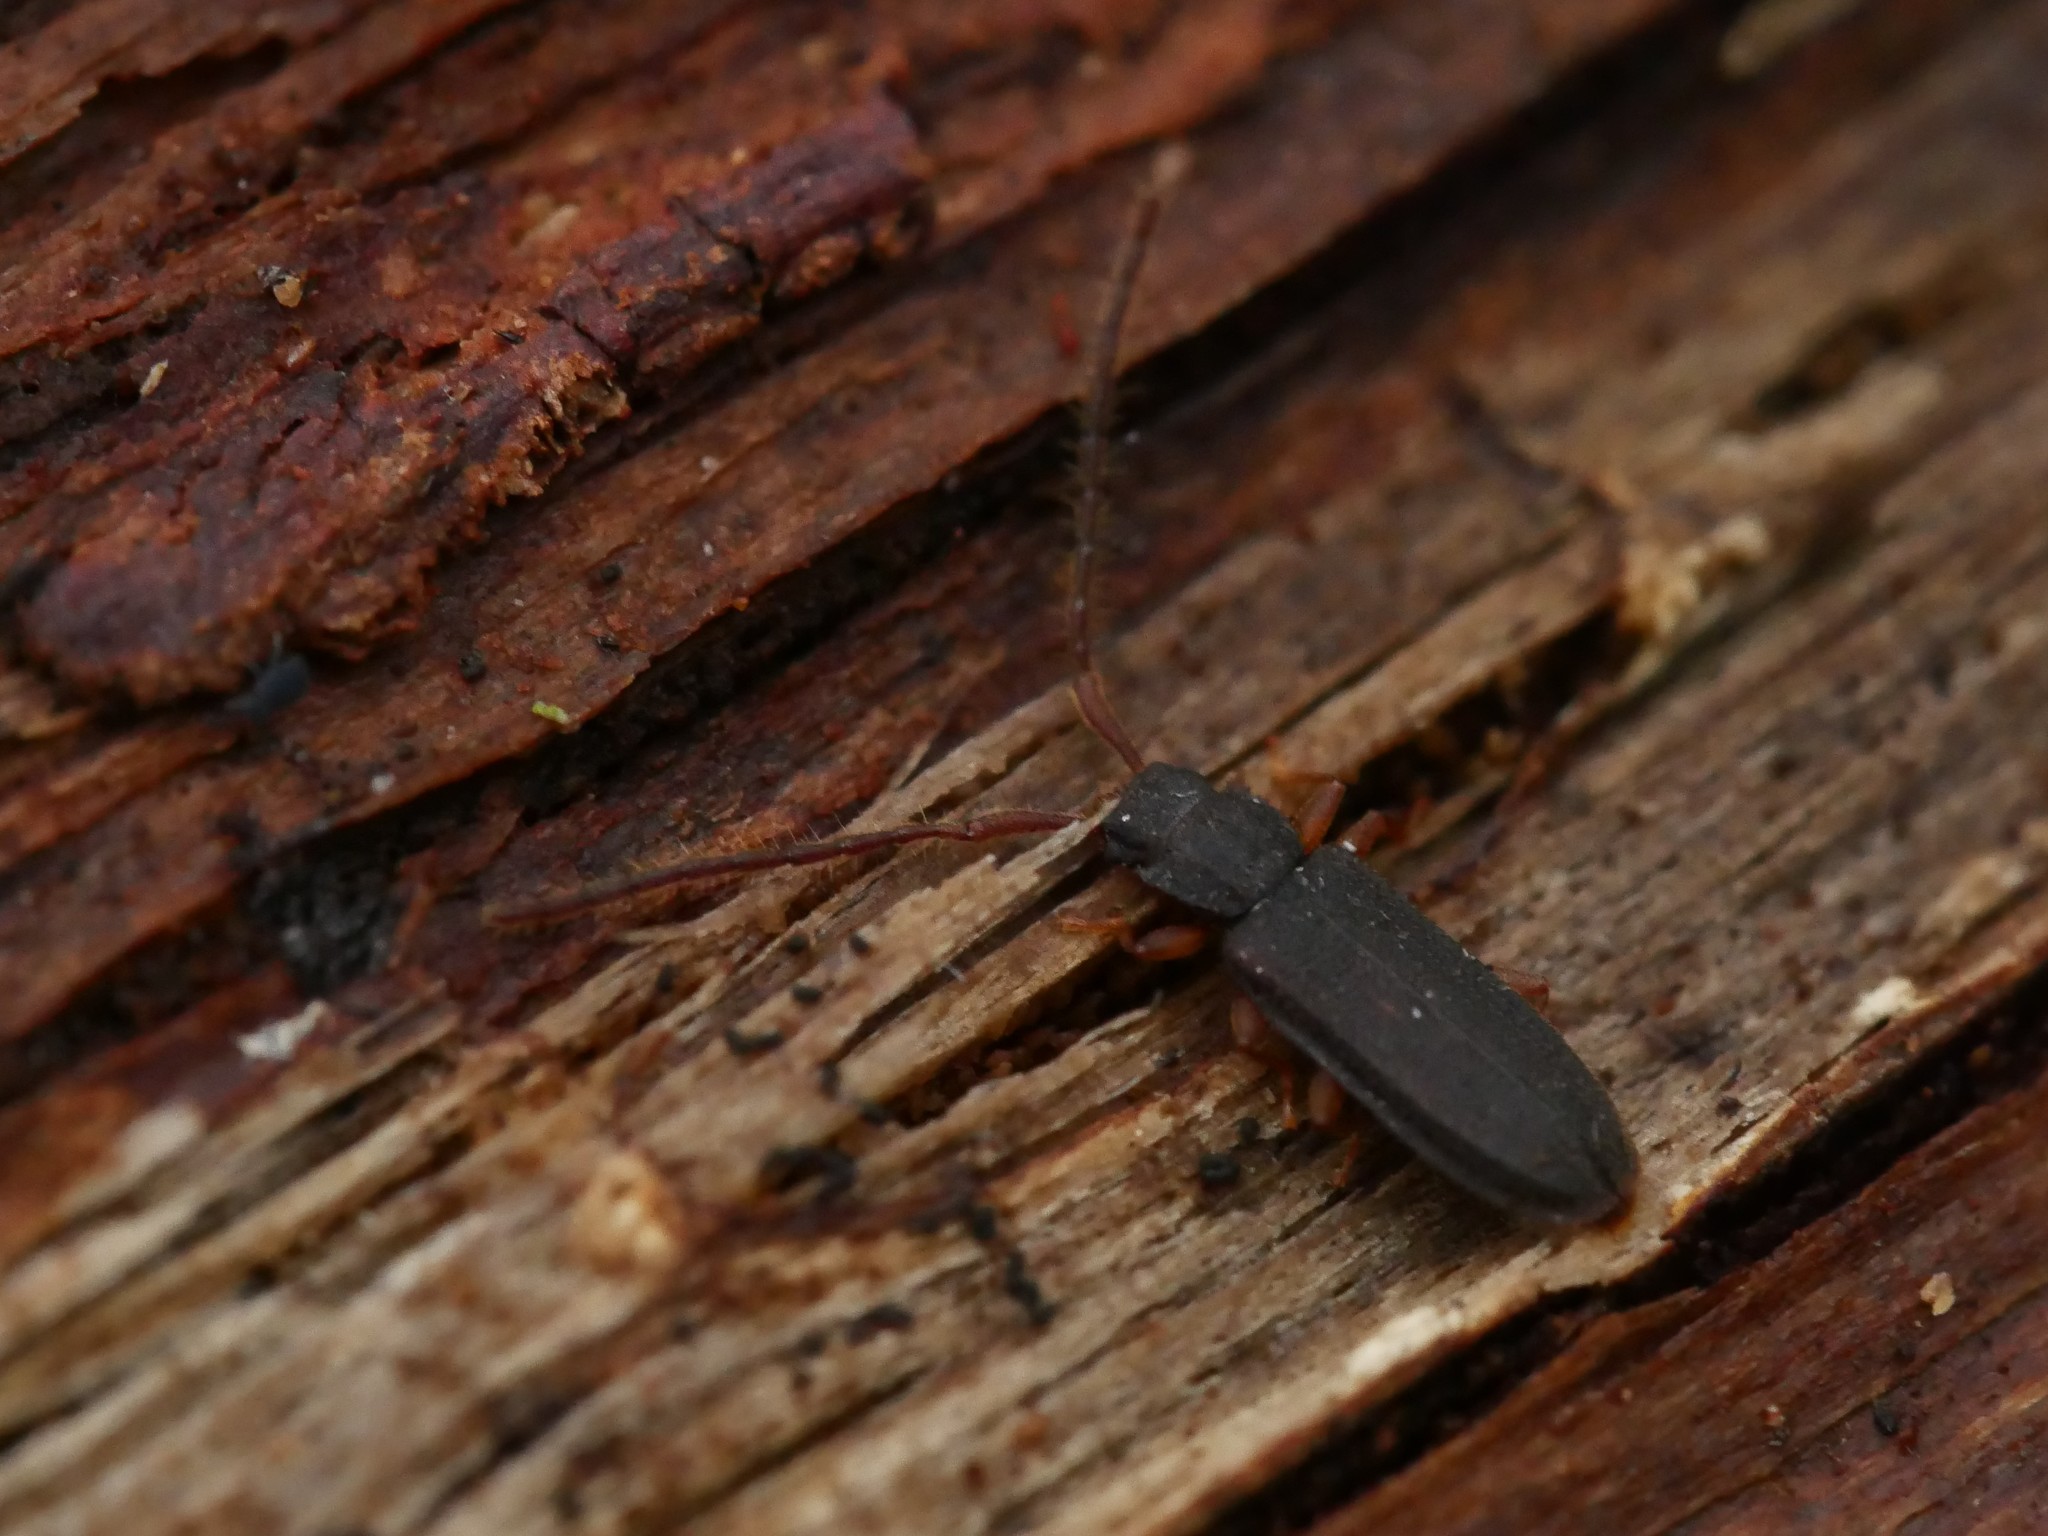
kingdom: Animalia
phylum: Arthropoda
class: Insecta
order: Coleoptera
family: Silvanidae
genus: Uleiota
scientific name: Uleiota planatus
